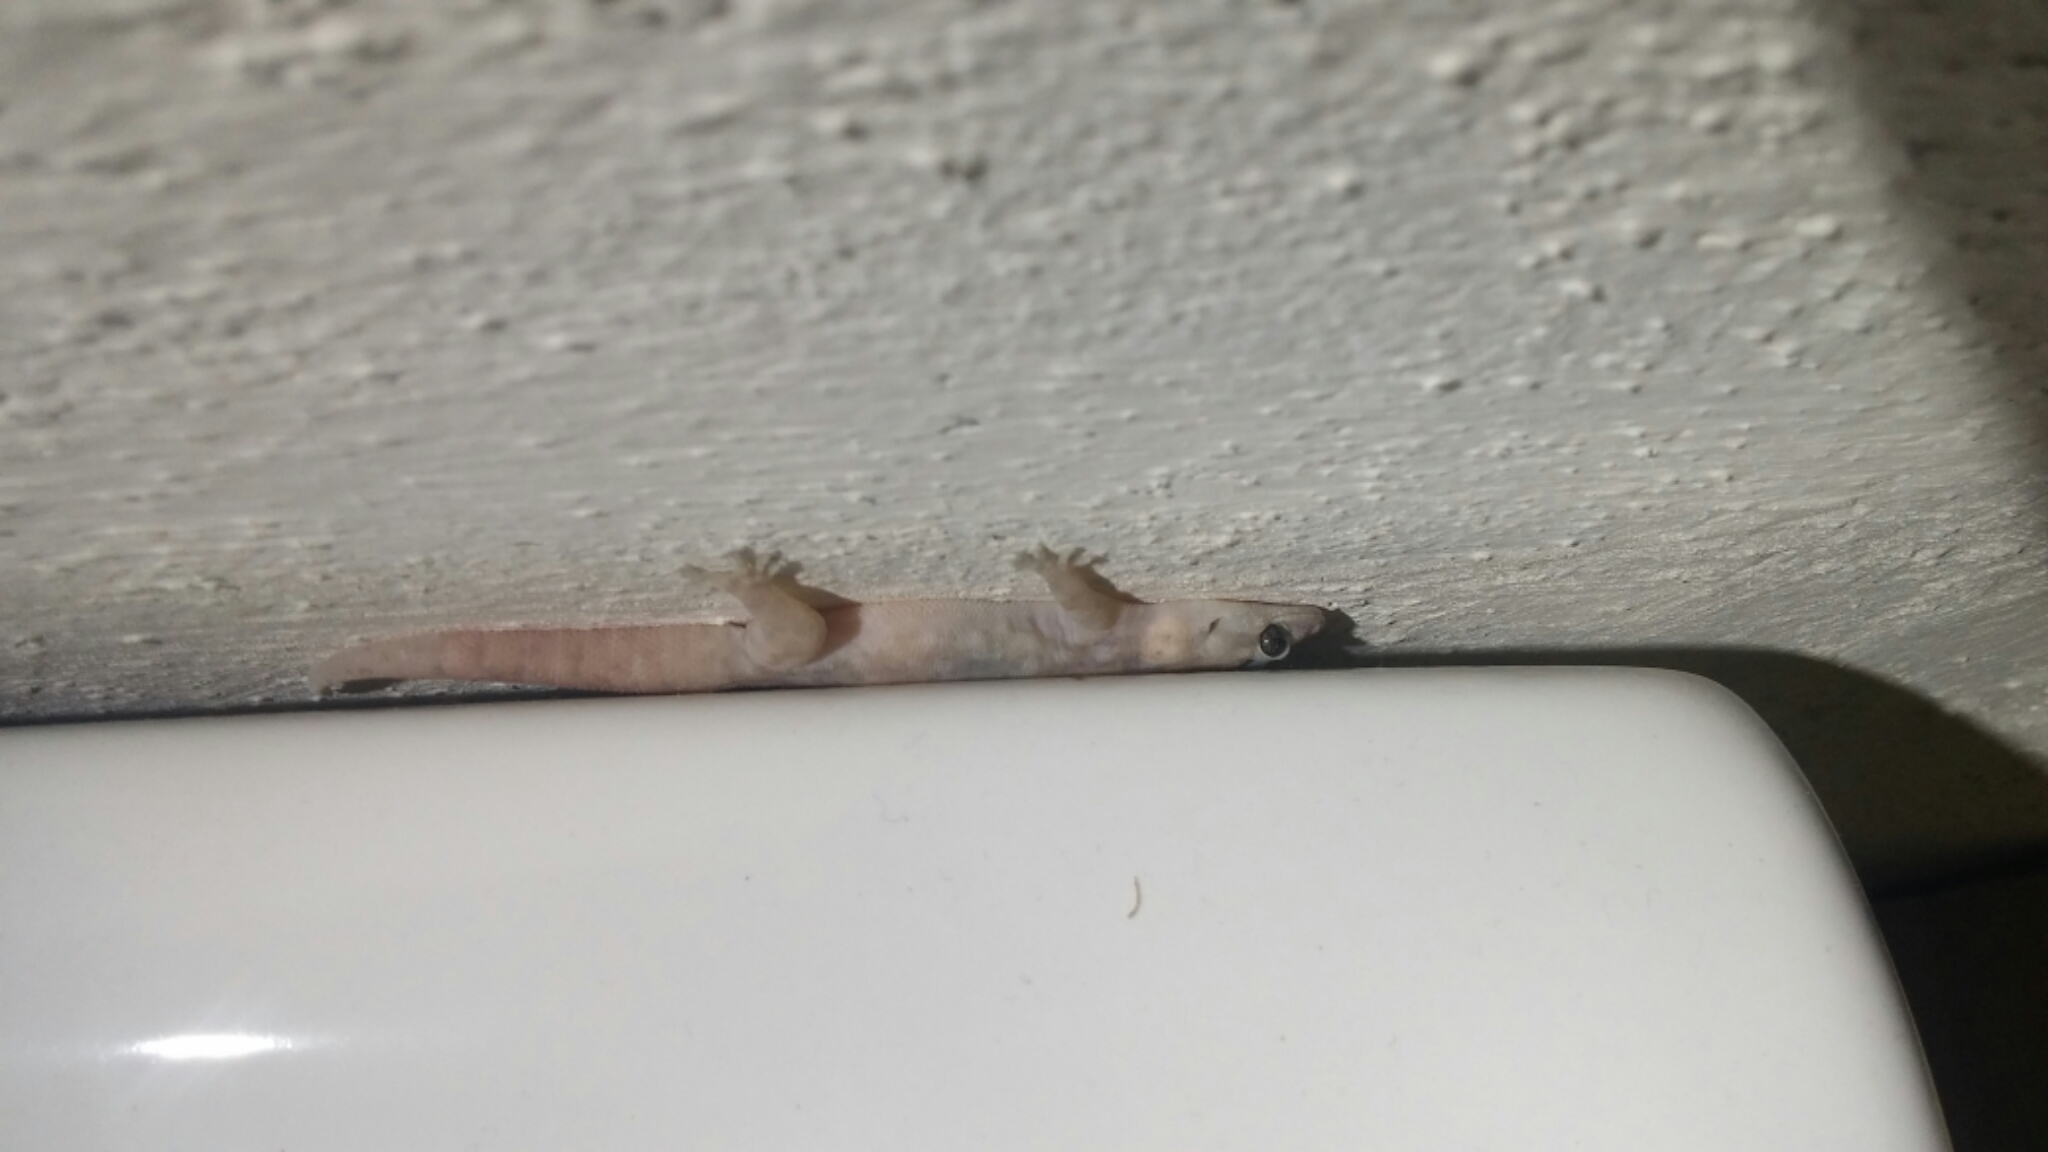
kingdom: Animalia
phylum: Chordata
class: Squamata
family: Phyllodactylidae
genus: Phyllodactylus
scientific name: Phyllodactylus unctus
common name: San lucan  gecko
